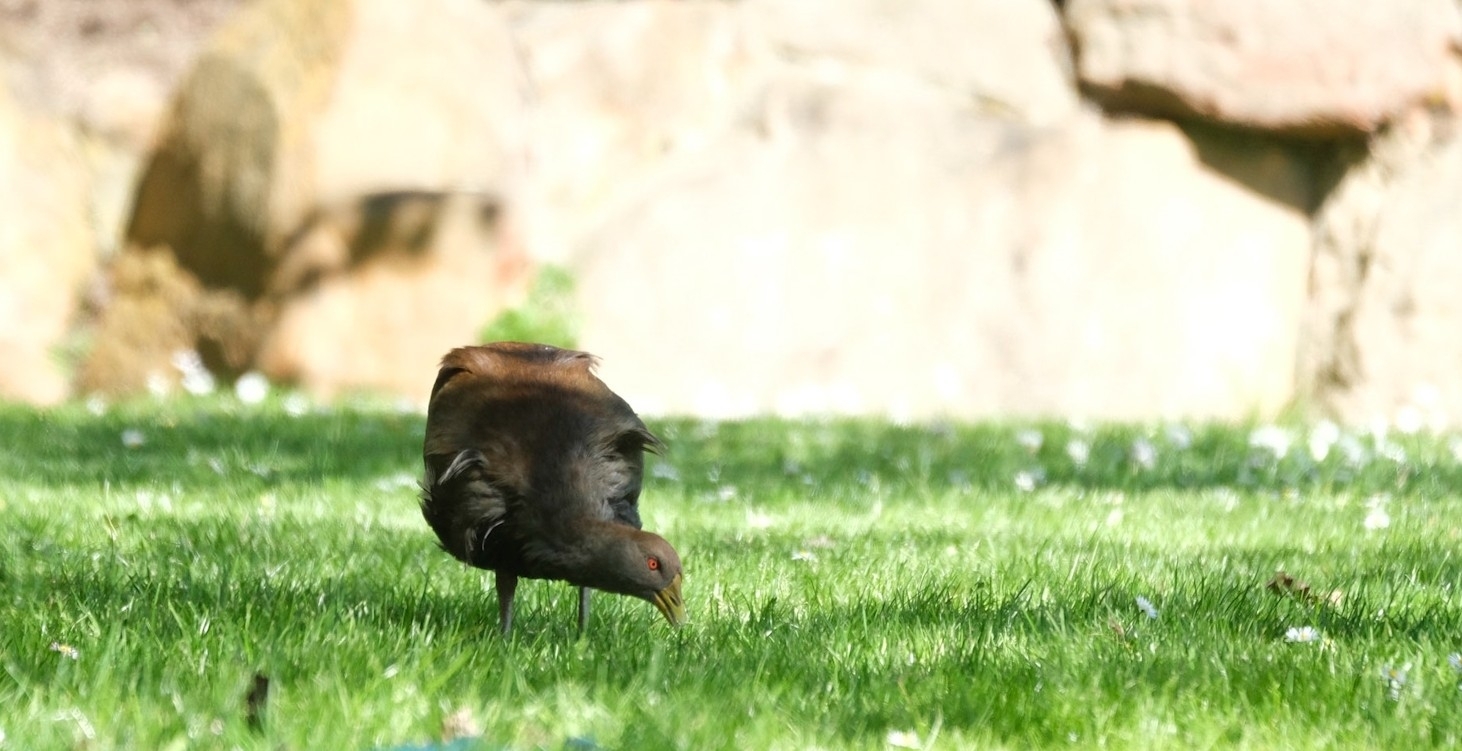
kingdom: Animalia
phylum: Chordata
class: Aves
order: Gruiformes
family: Rallidae
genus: Gallinula
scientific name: Gallinula mortierii
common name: Tasmanian nativehen
